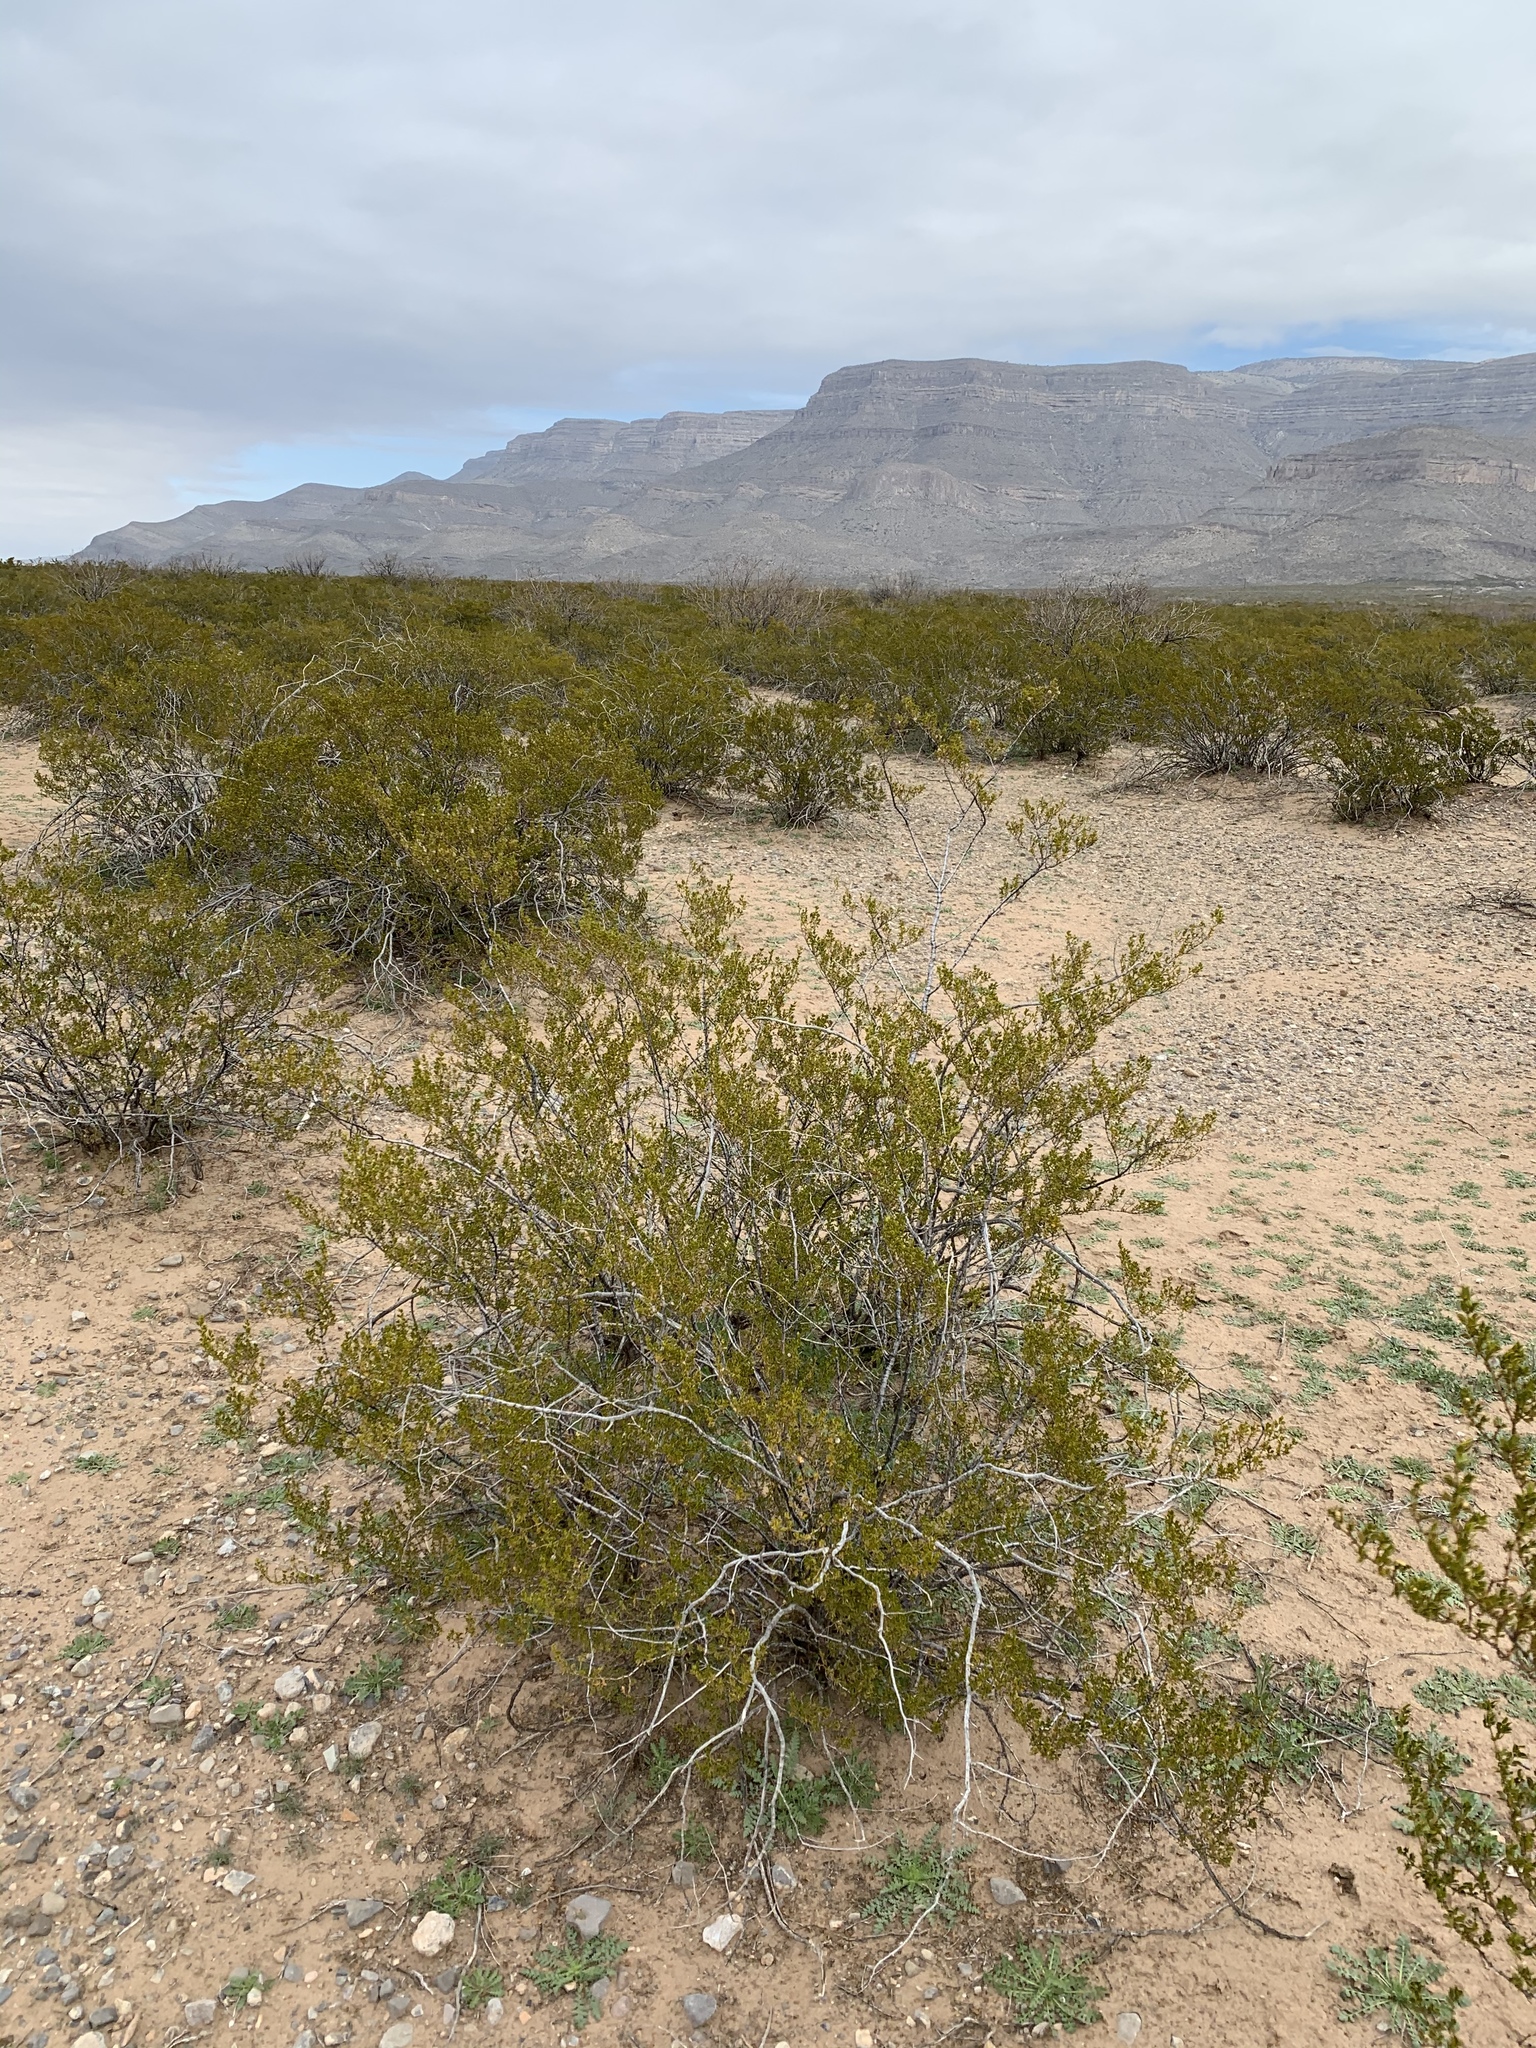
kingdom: Plantae
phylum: Tracheophyta
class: Magnoliopsida
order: Zygophyllales
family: Zygophyllaceae
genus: Larrea
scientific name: Larrea tridentata
